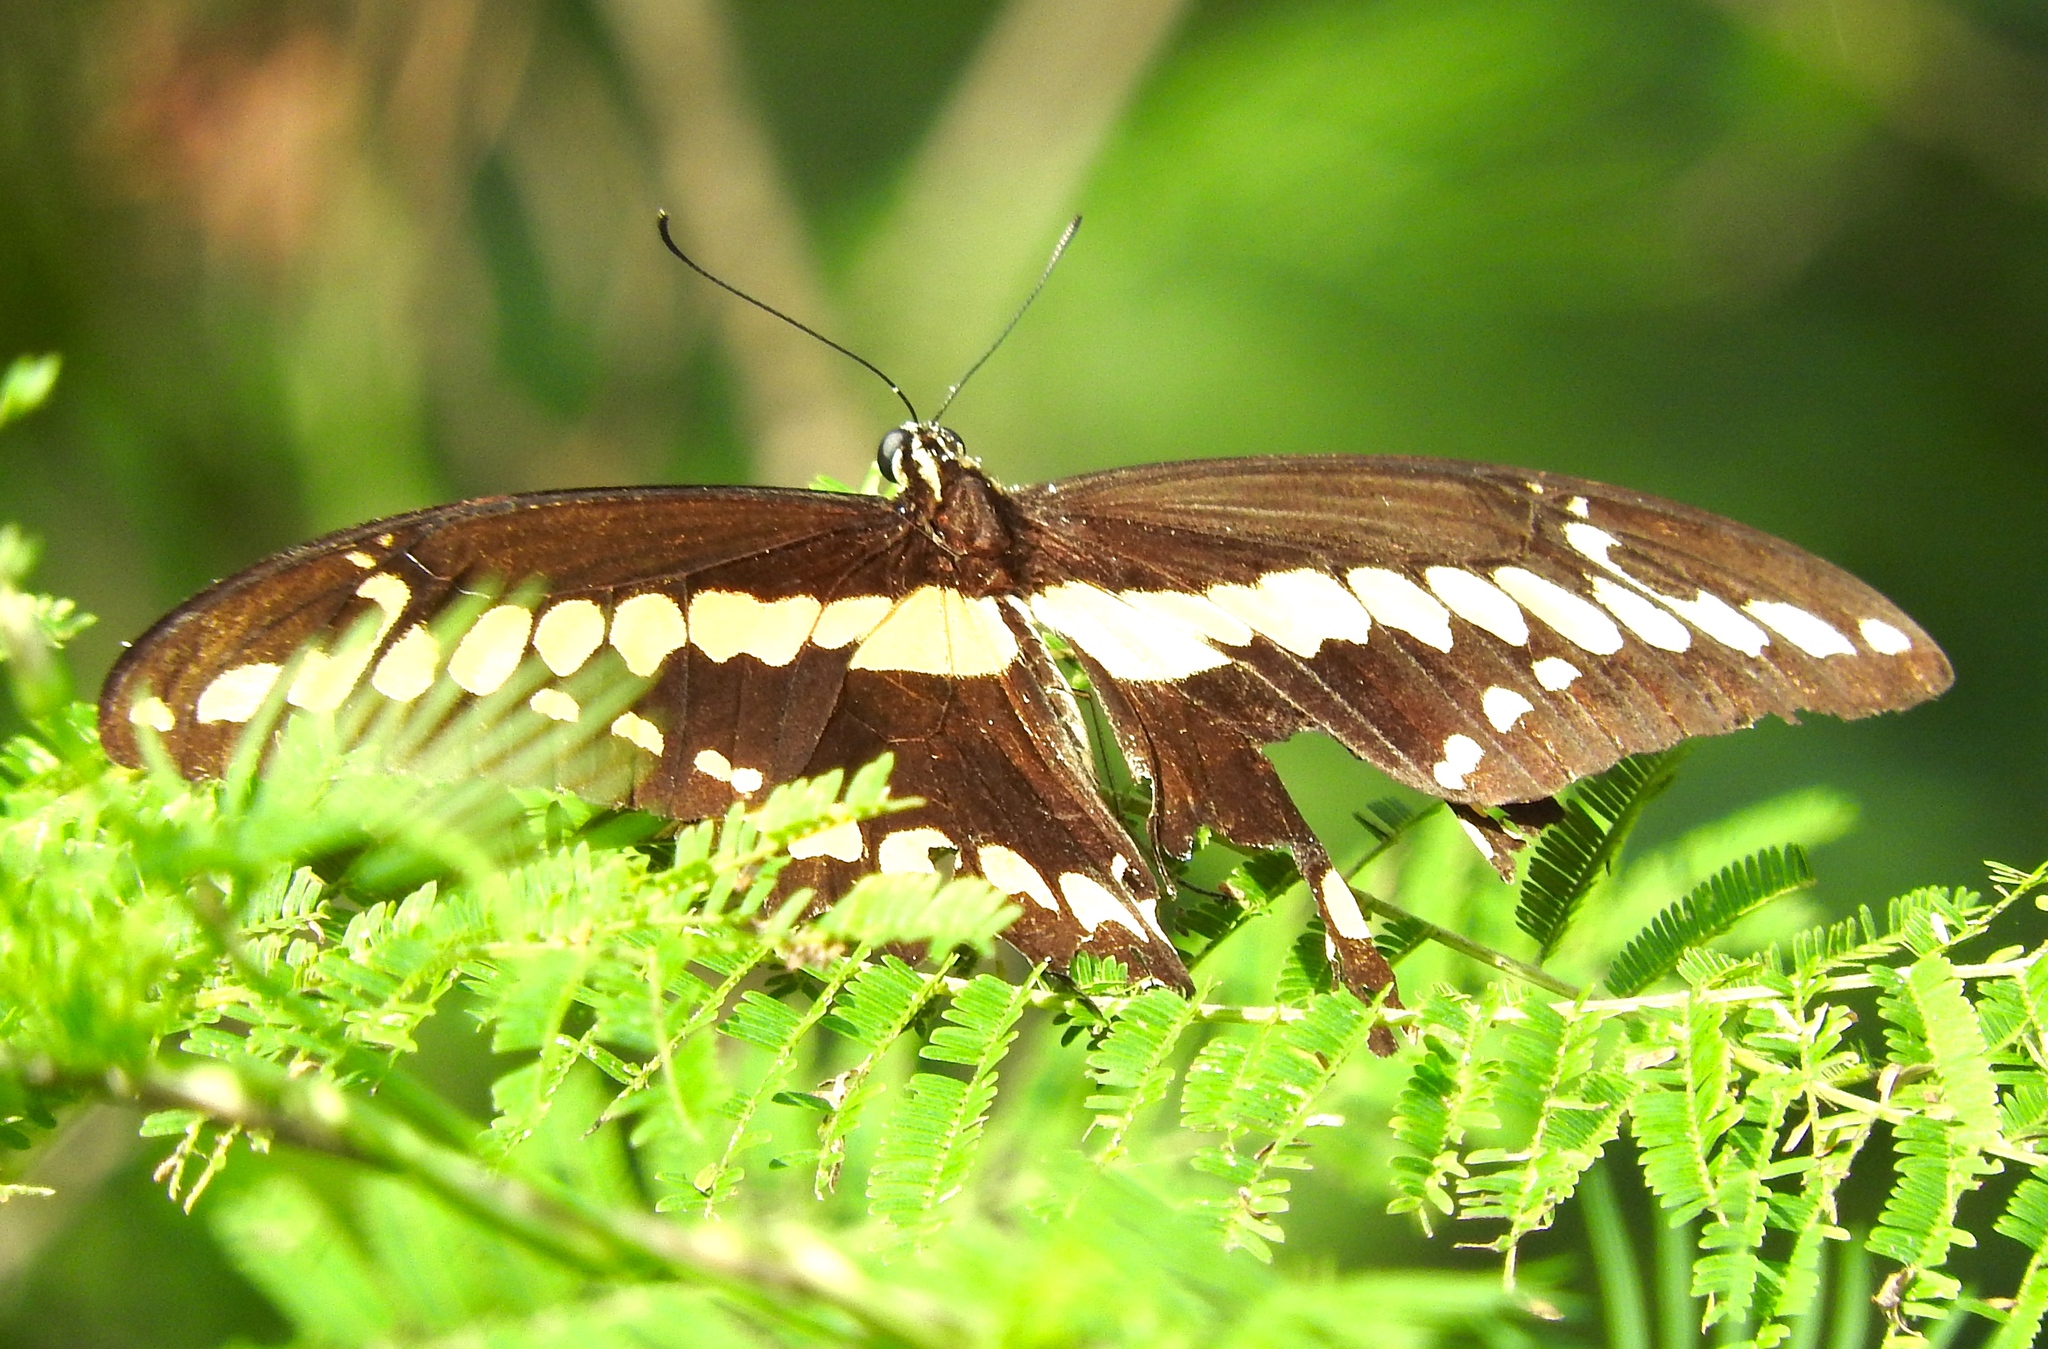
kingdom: Animalia
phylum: Arthropoda
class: Insecta
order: Lepidoptera
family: Papilionidae
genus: Papilio
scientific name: Papilio rumiko
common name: Western giant swallowtail
